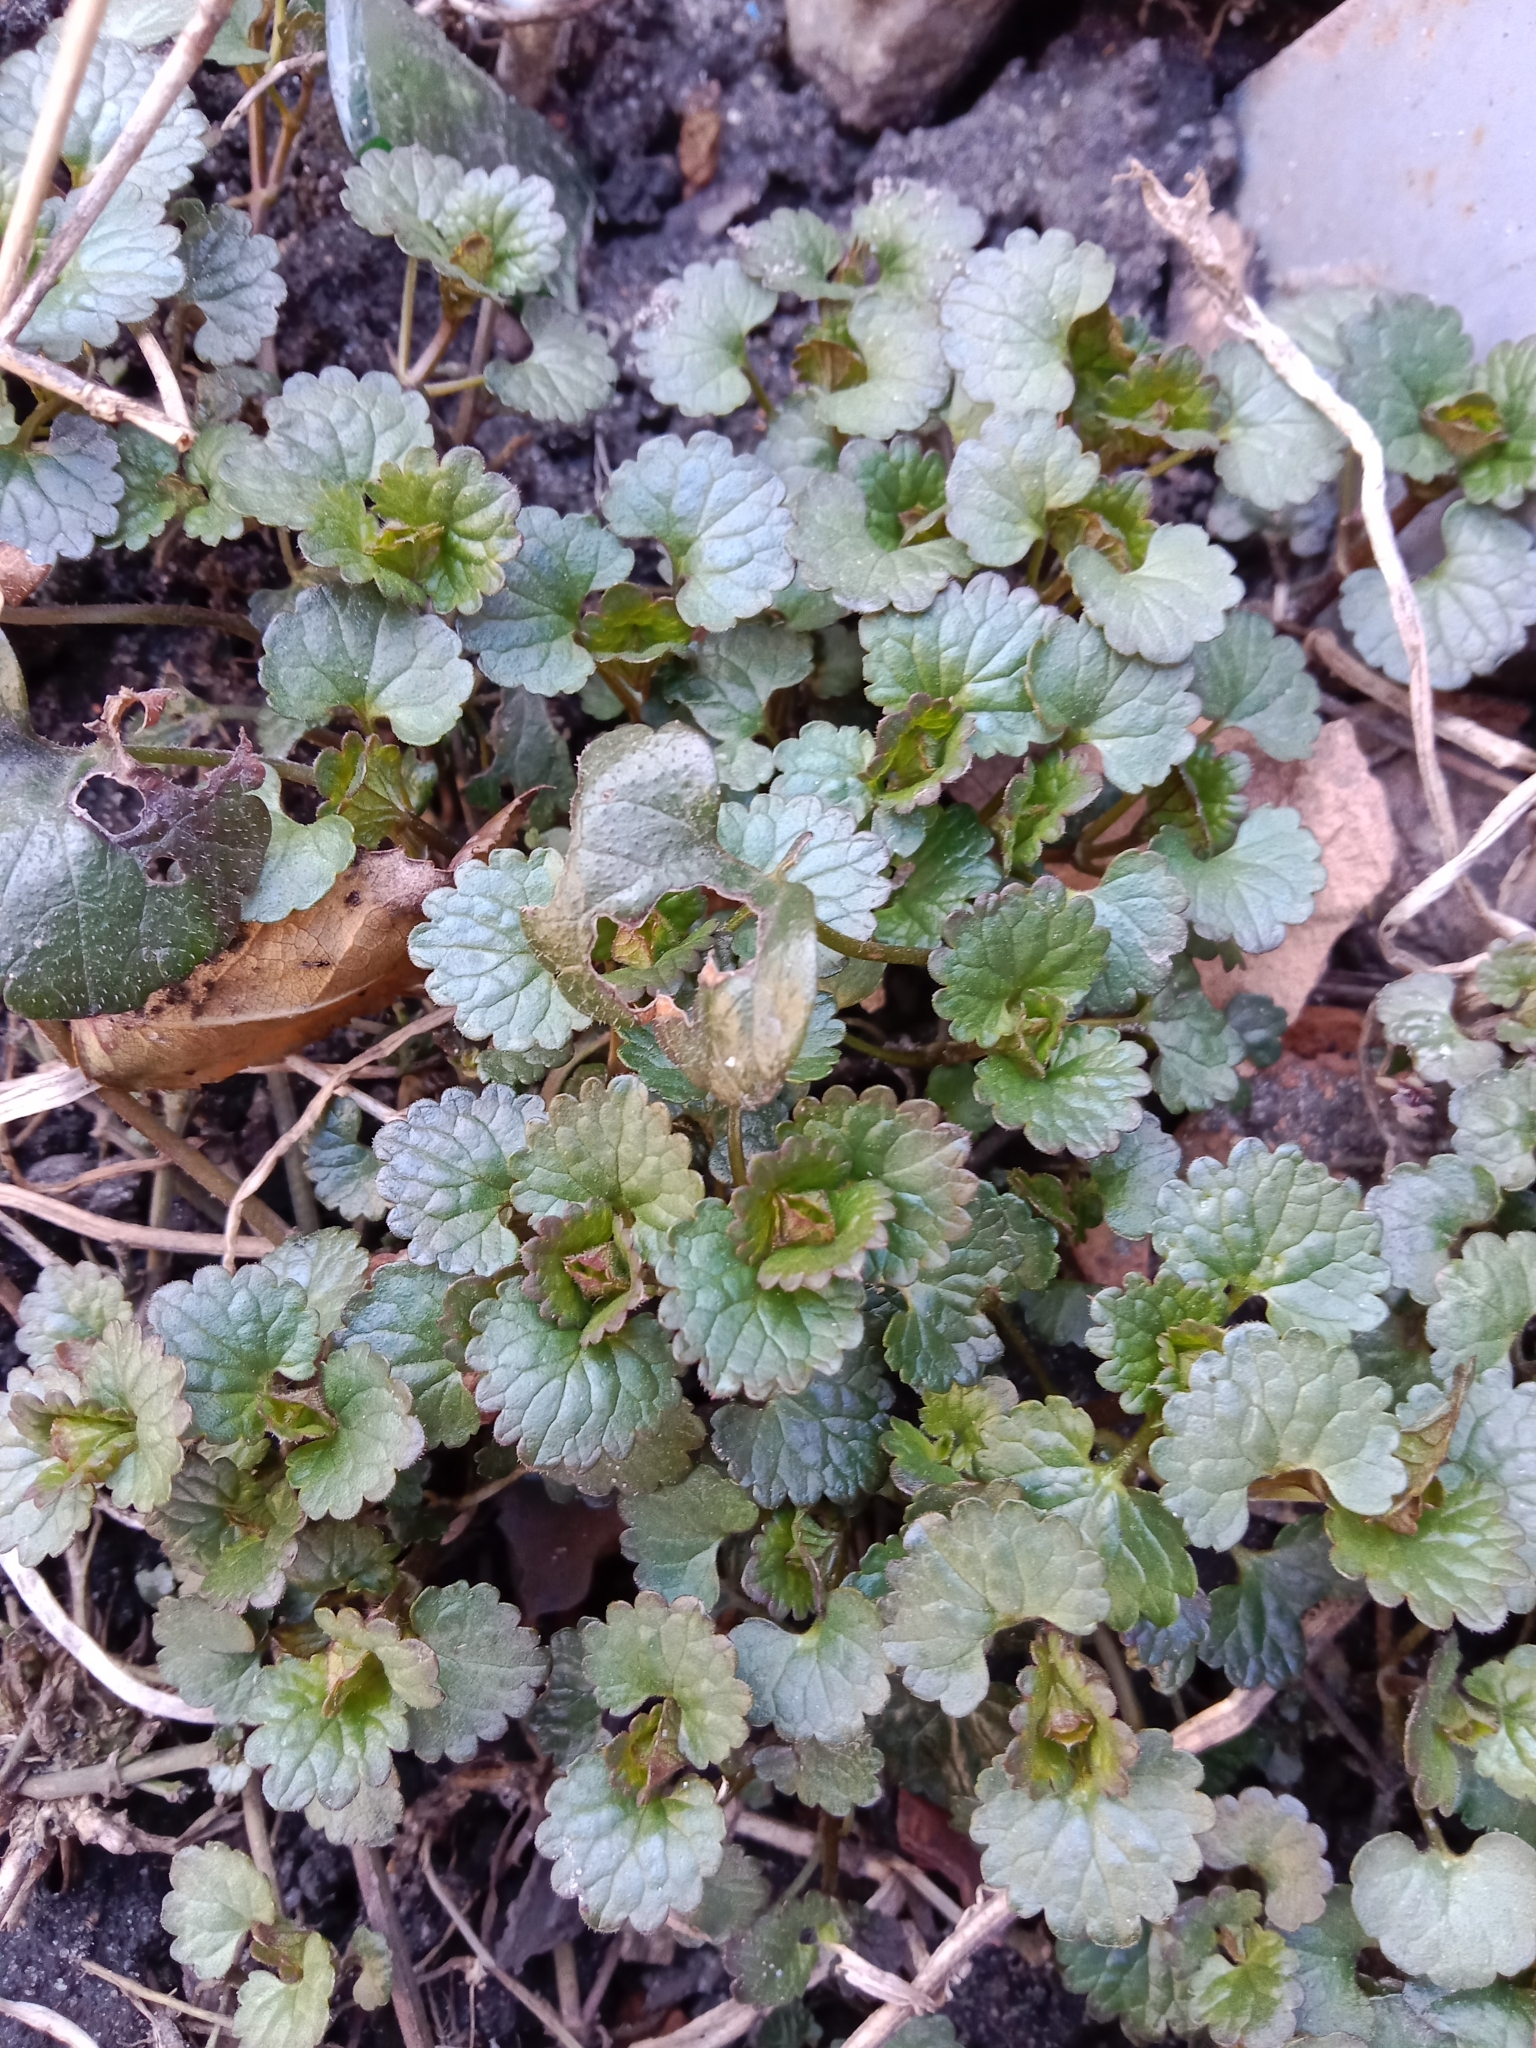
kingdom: Plantae
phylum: Tracheophyta
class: Magnoliopsida
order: Lamiales
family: Lamiaceae
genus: Glechoma
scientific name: Glechoma hederacea
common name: Ground ivy
